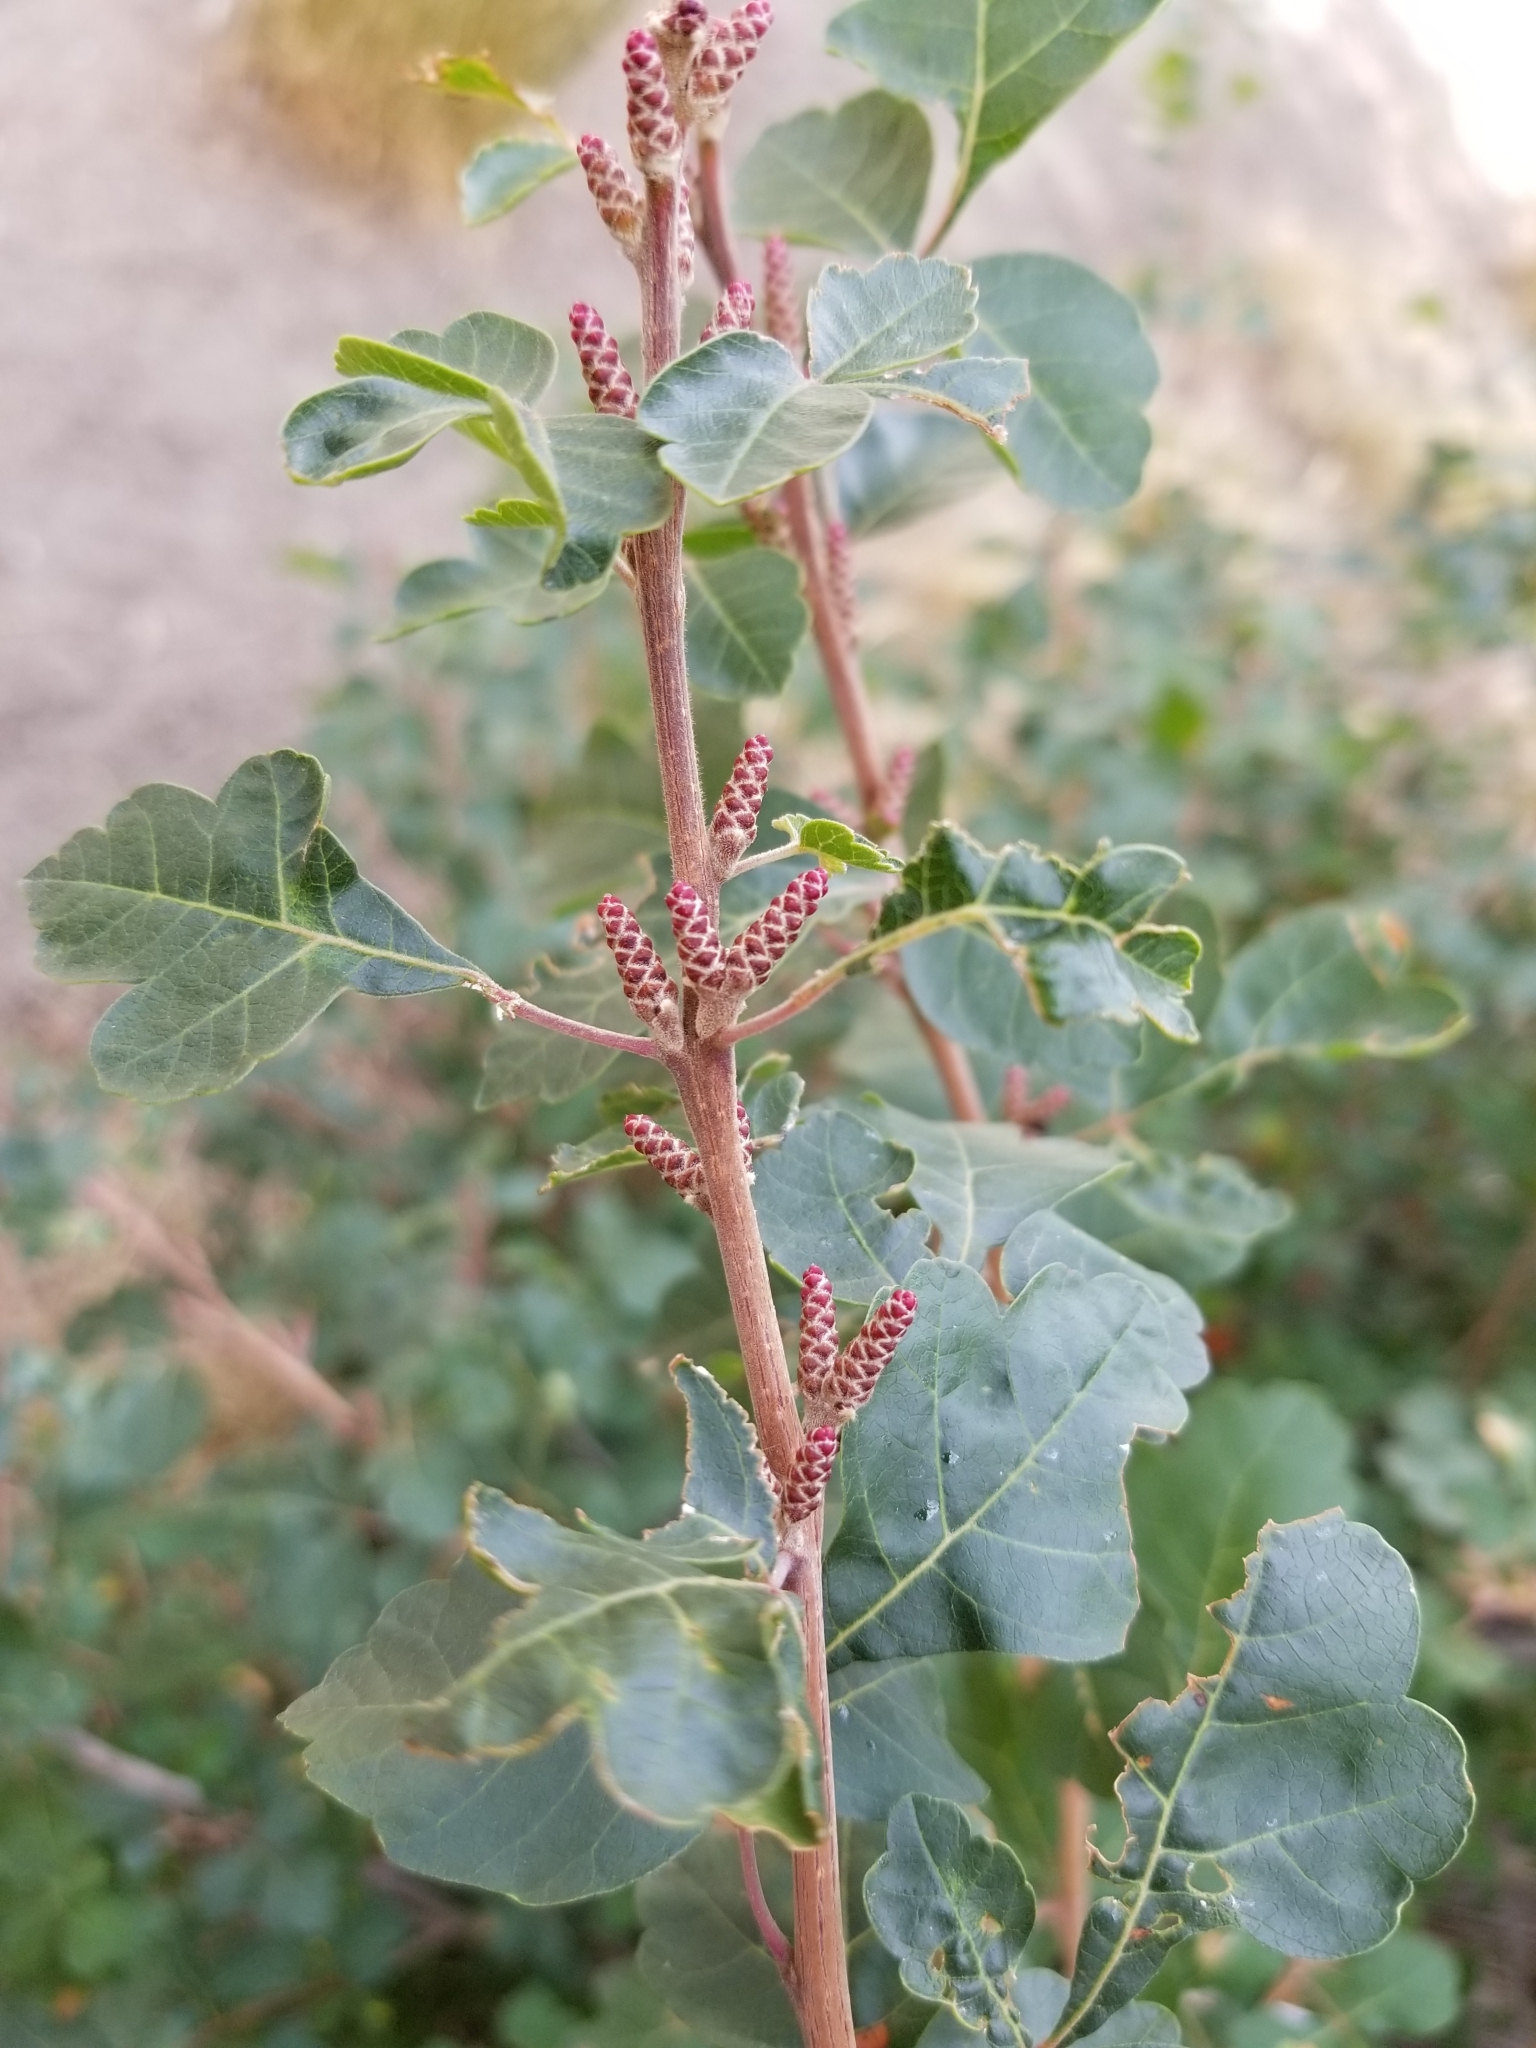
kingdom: Plantae
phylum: Tracheophyta
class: Magnoliopsida
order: Sapindales
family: Anacardiaceae
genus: Rhus
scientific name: Rhus aromatica
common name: Aromatic sumac
